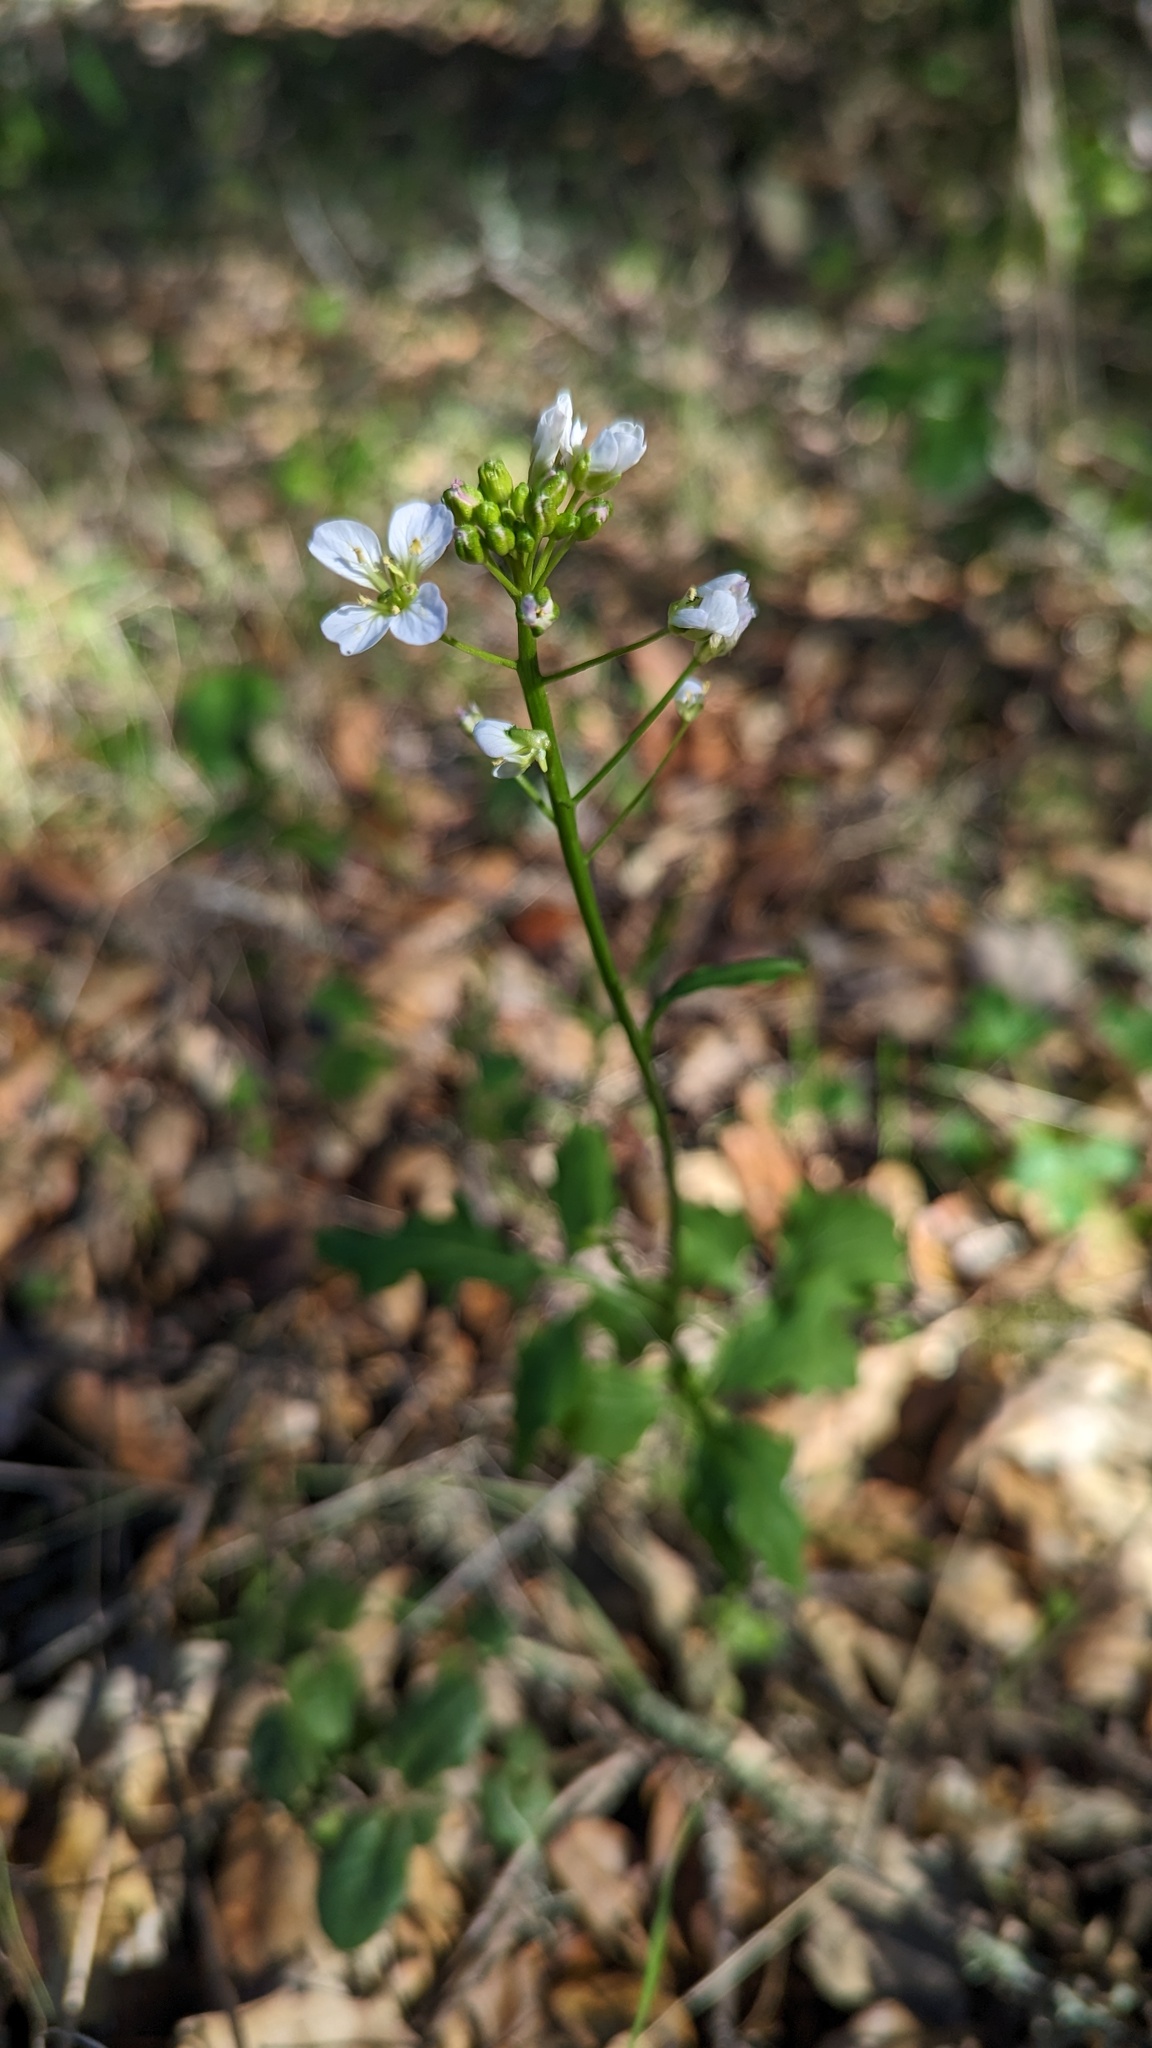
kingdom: Plantae
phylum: Tracheophyta
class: Magnoliopsida
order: Brassicales
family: Brassicaceae
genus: Cardamine
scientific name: Cardamine californica
